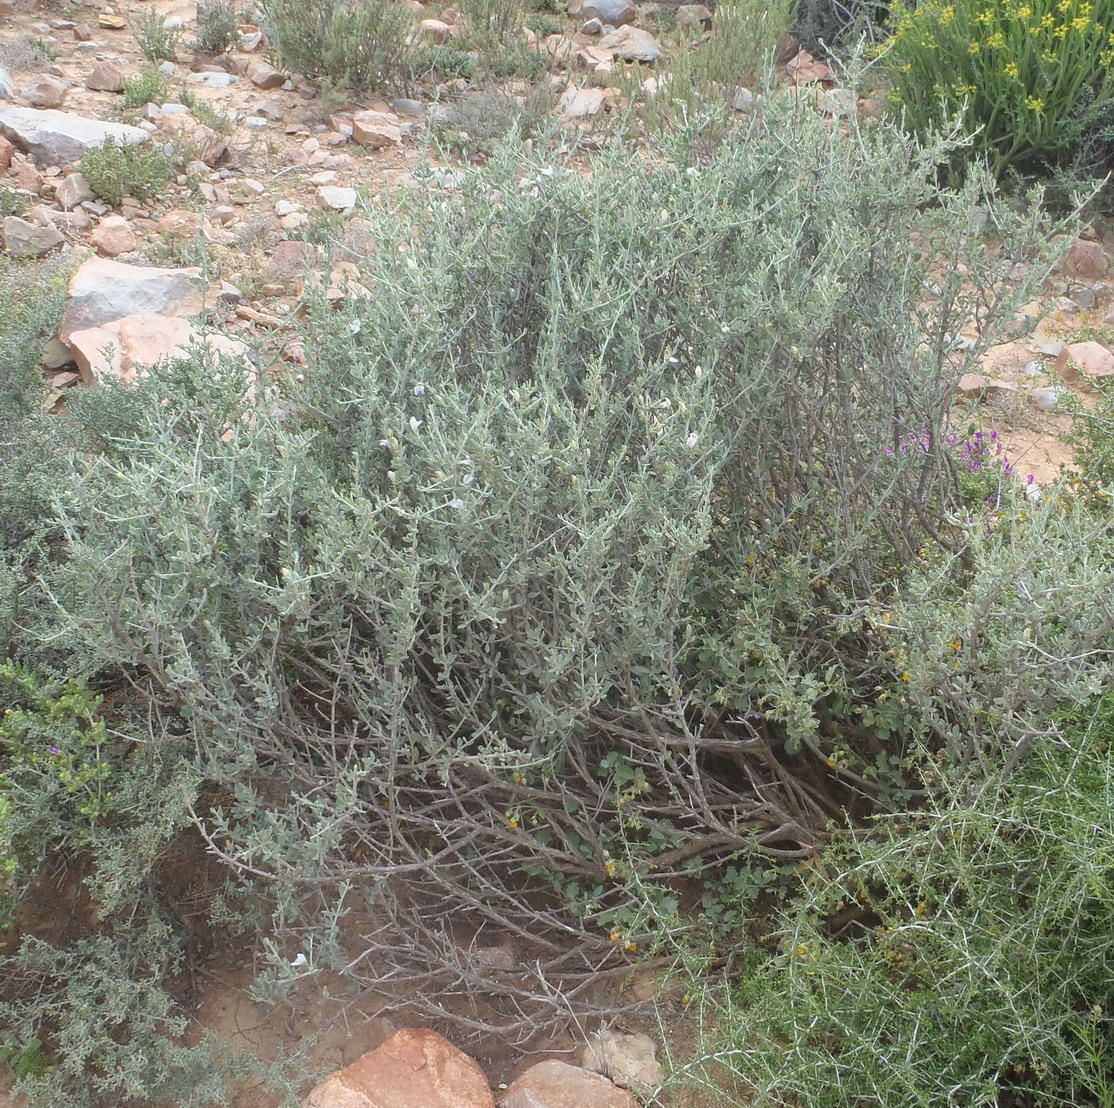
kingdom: Plantae
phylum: Tracheophyta
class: Magnoliopsida
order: Lamiales
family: Acanthaceae
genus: Pogonospermum
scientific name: Pogonospermum
